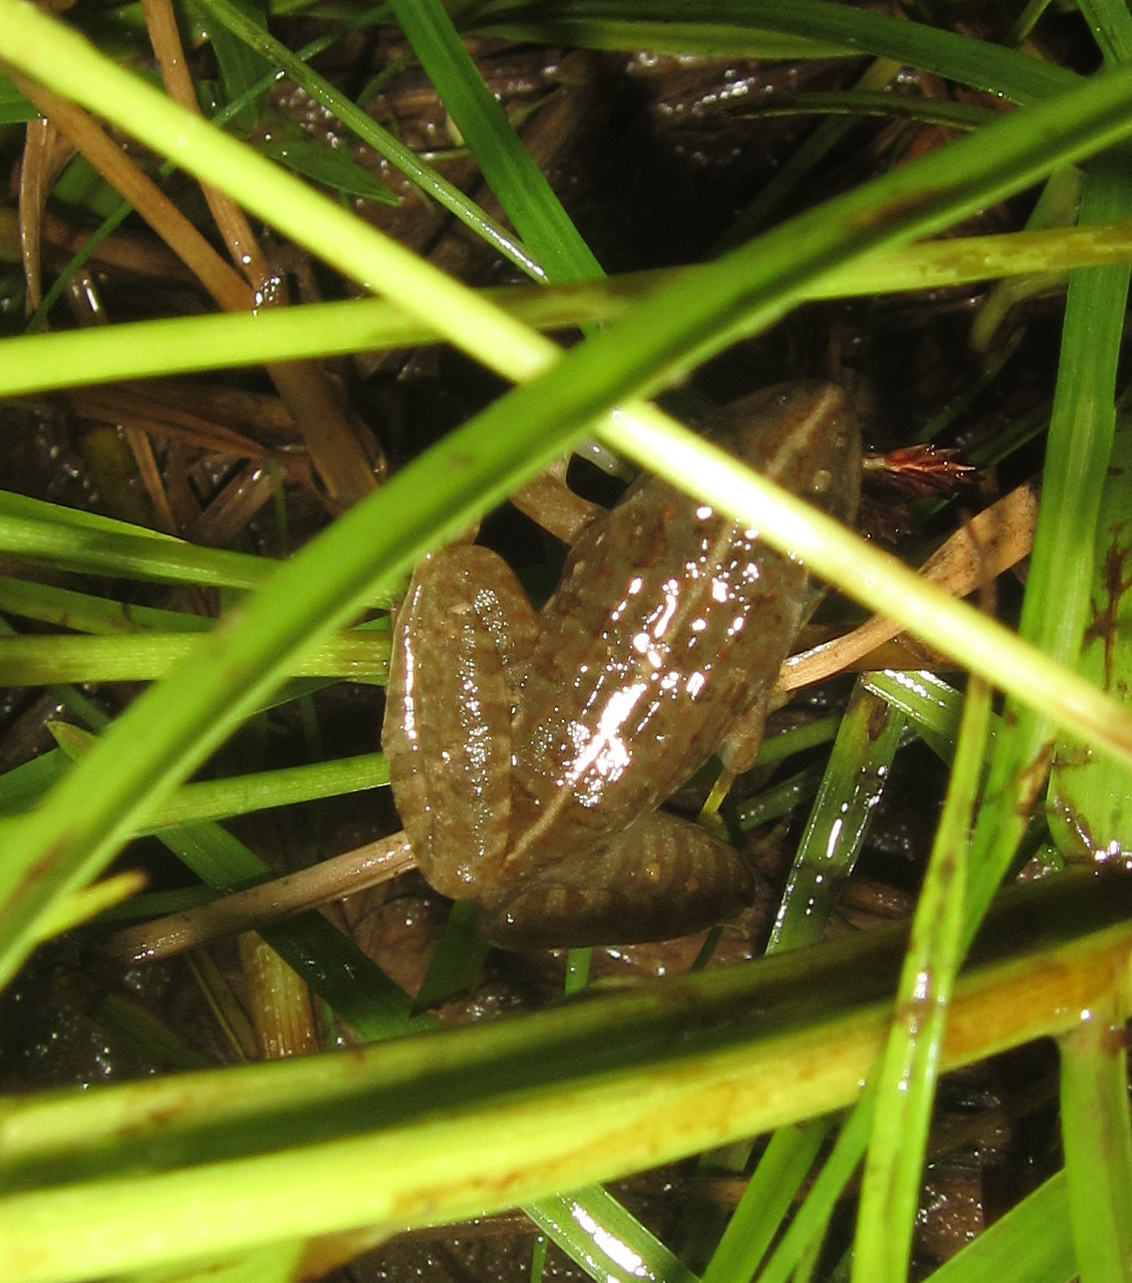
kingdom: Animalia
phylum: Chordata
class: Amphibia
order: Anura
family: Pyxicephalidae
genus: Amietia
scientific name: Amietia delalandii
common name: Delalande's river frog
